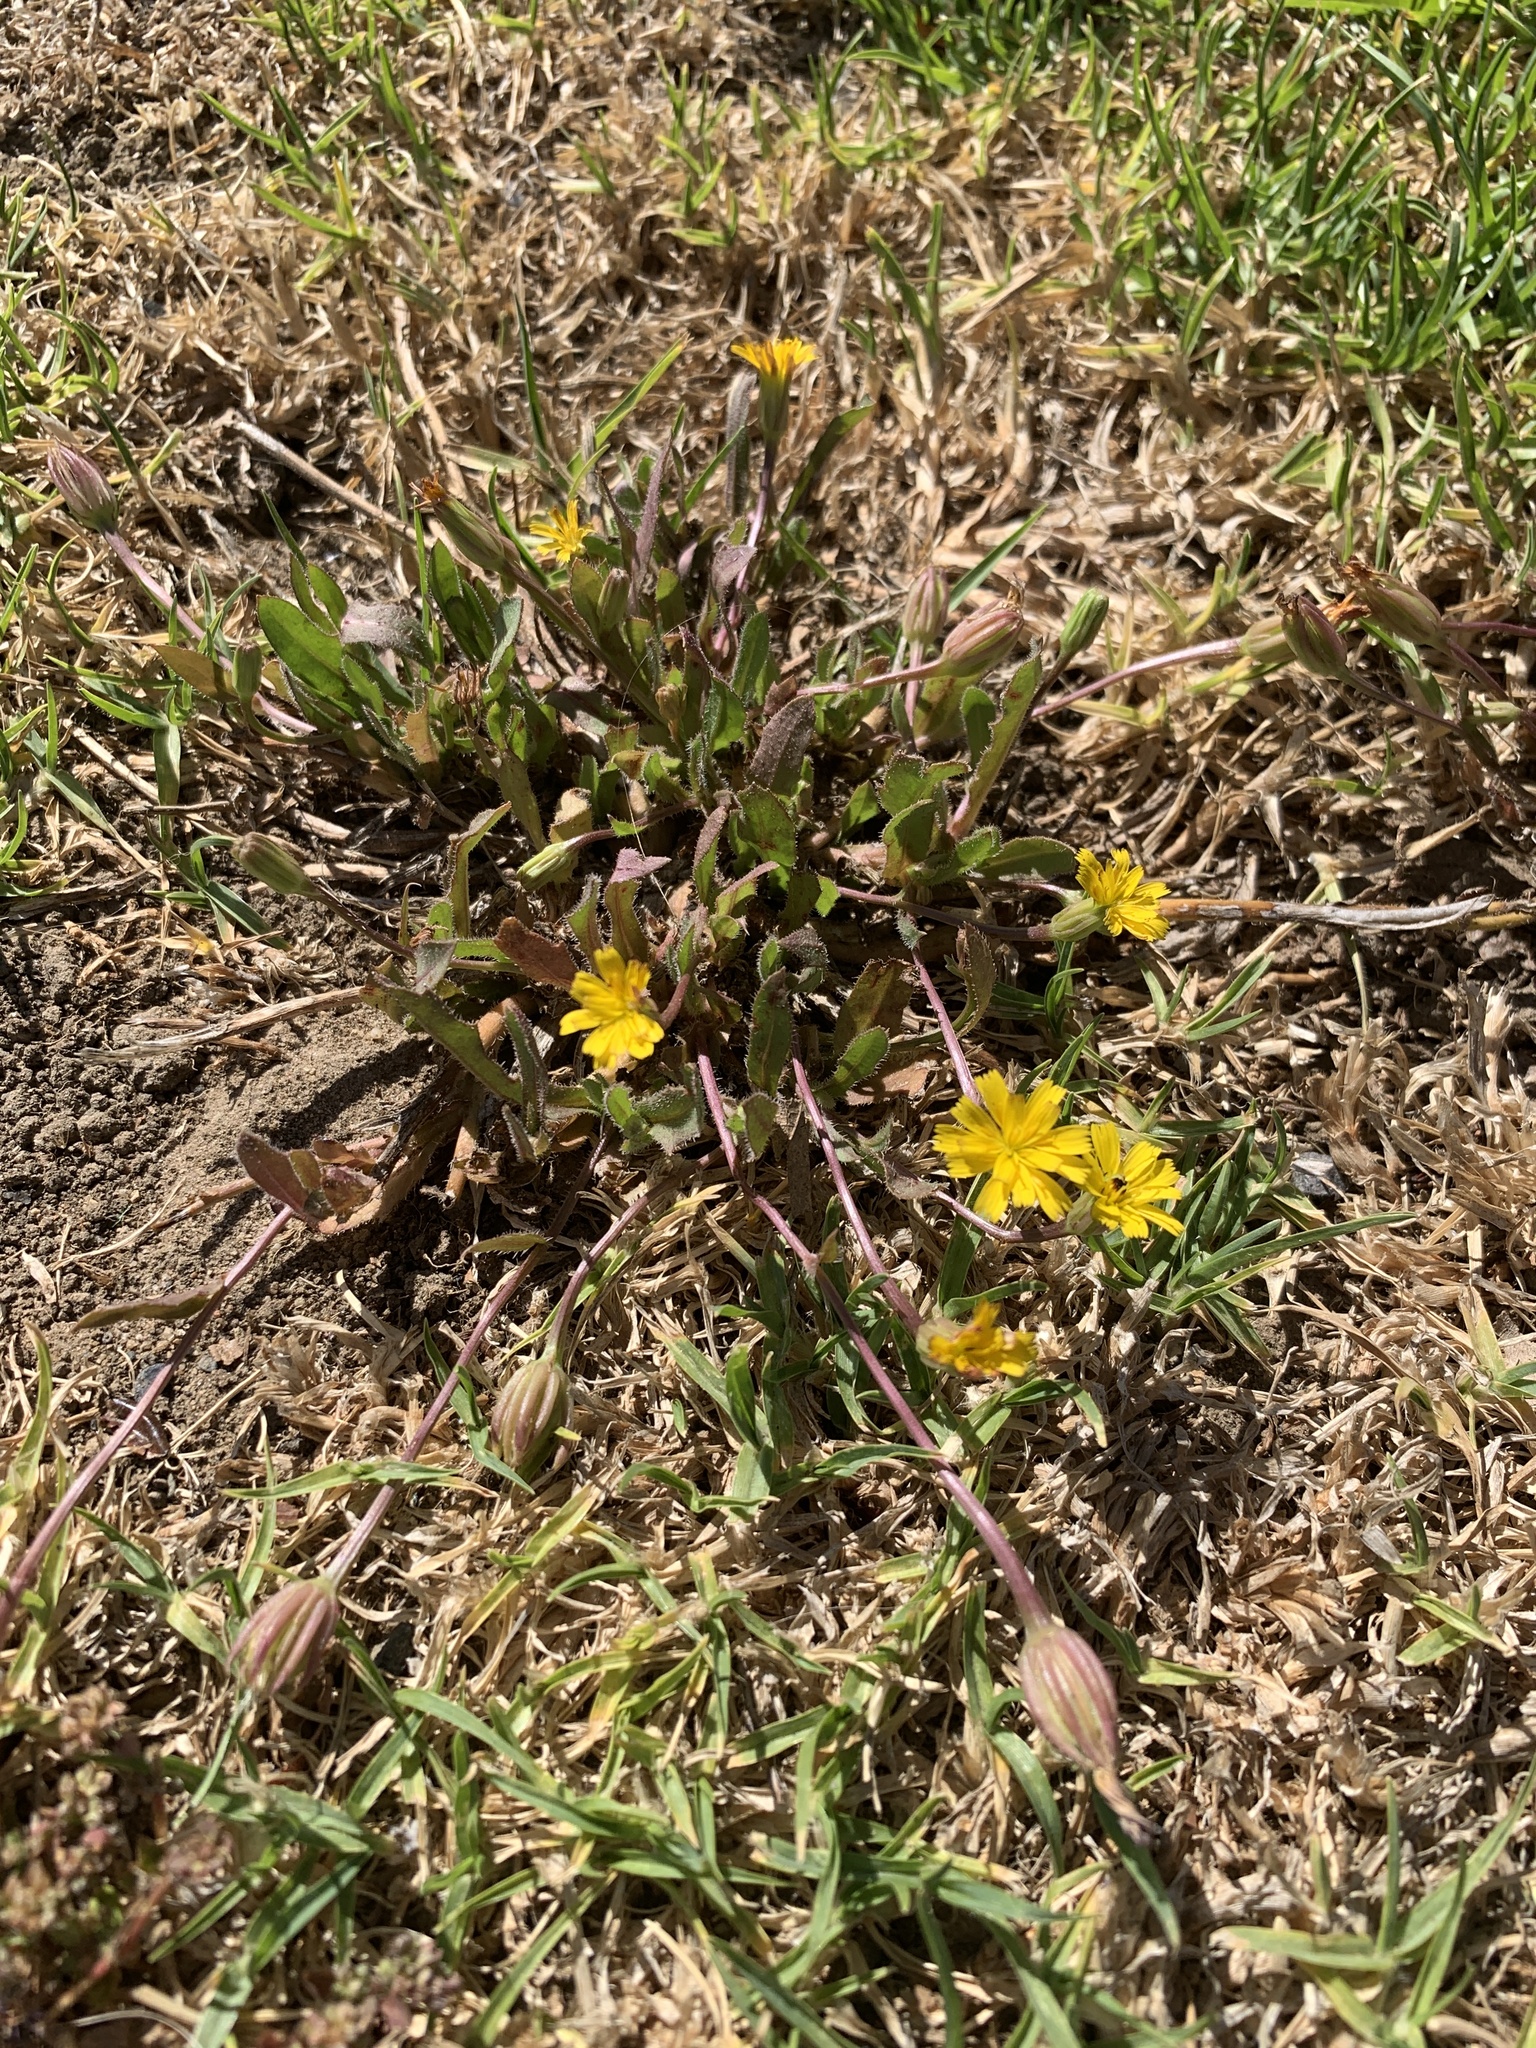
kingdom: Plantae
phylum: Tracheophyta
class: Magnoliopsida
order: Asterales
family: Asteraceae
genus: Hedypnois
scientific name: Hedypnois rhagadioloides
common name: Cretan weed
